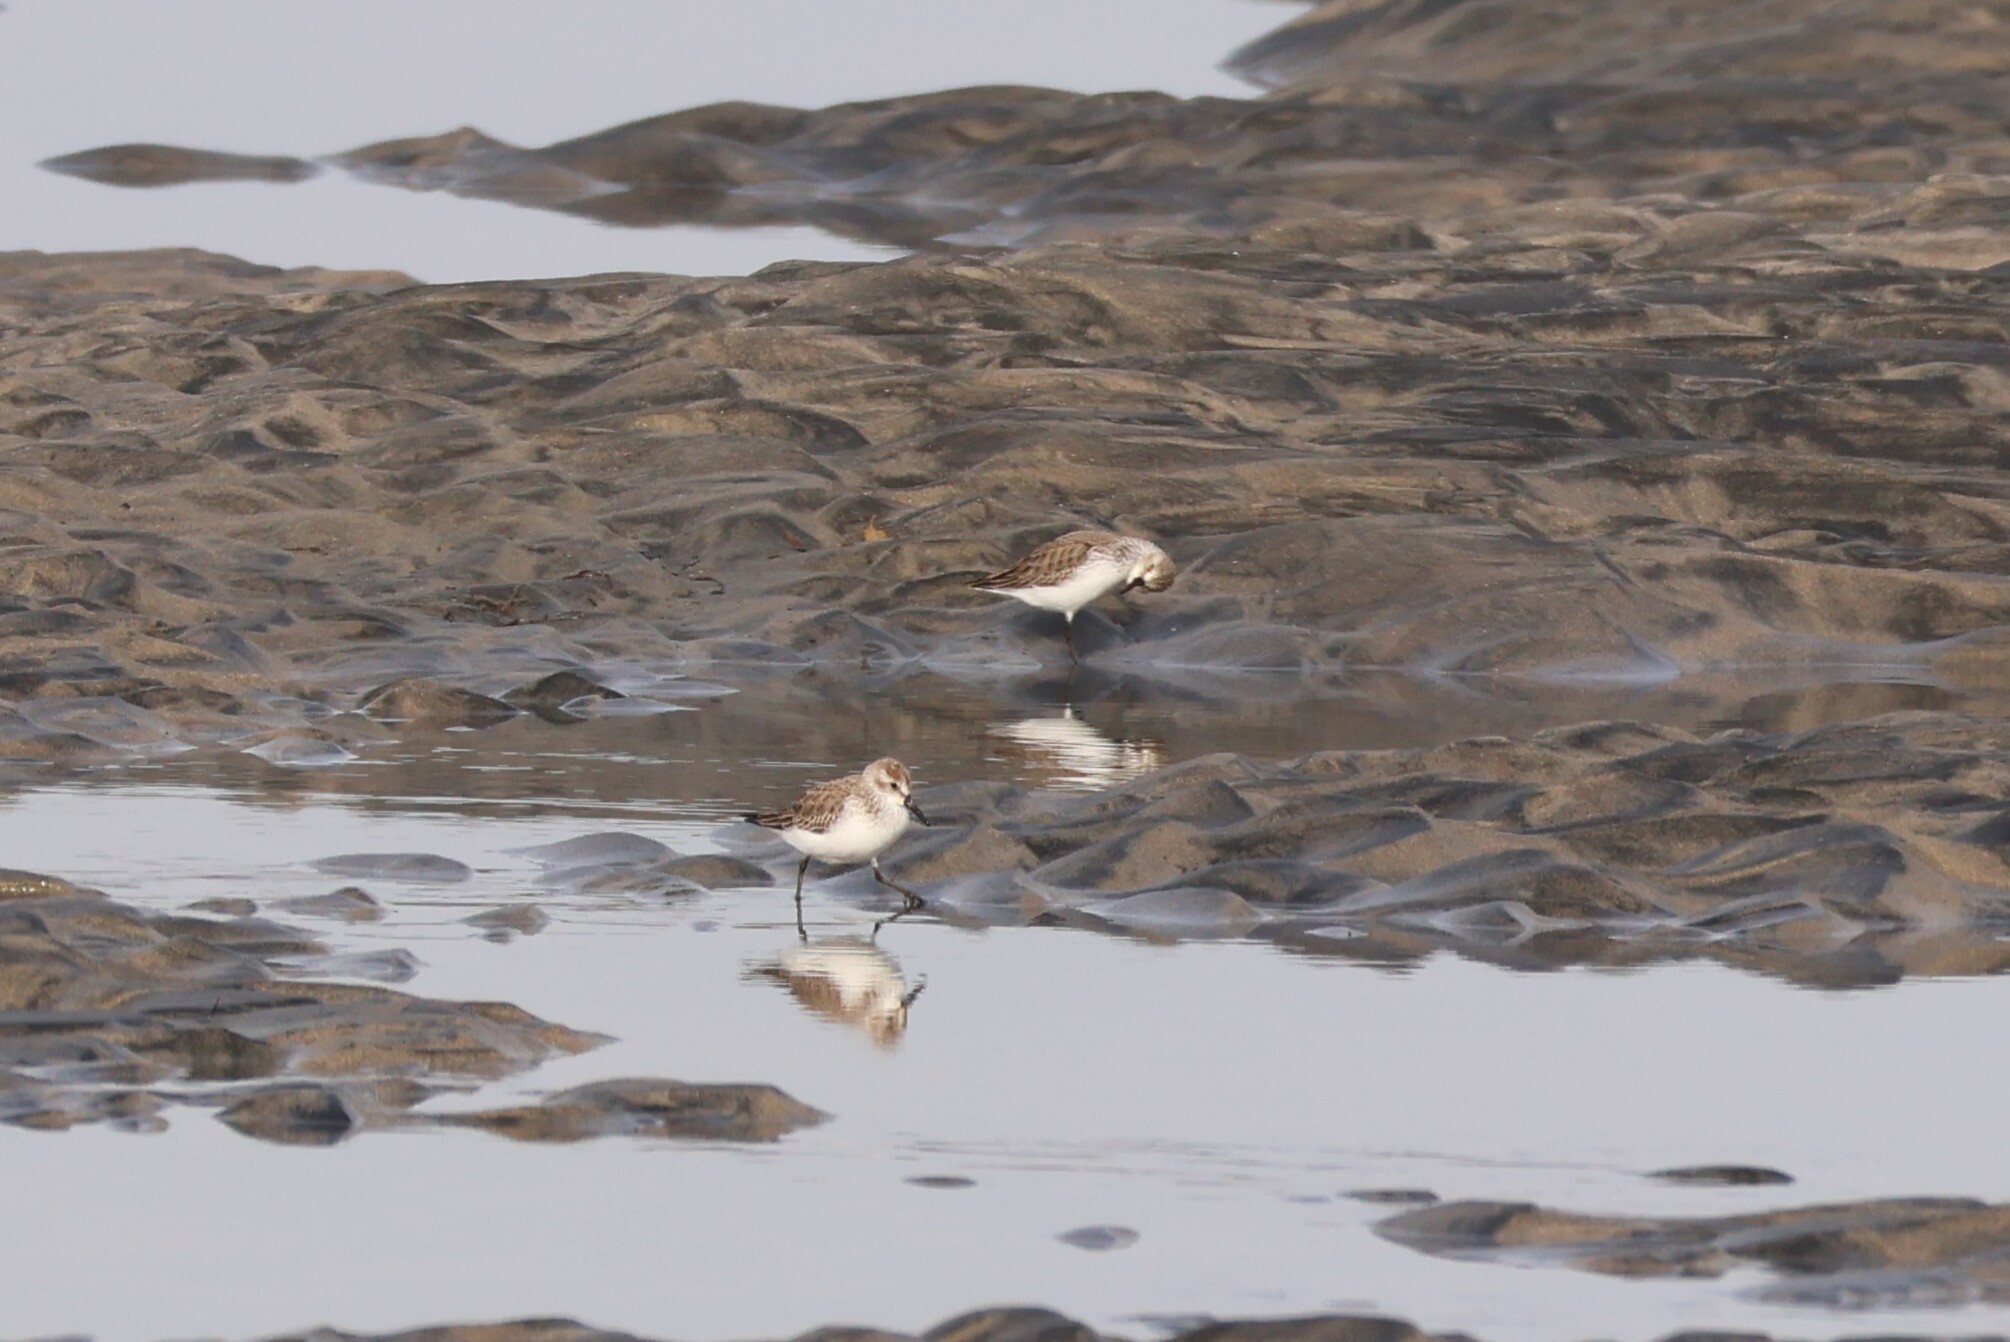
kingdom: Animalia
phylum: Chordata
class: Aves
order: Charadriiformes
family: Scolopacidae
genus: Calidris
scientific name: Calidris mauri
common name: Western sandpiper
